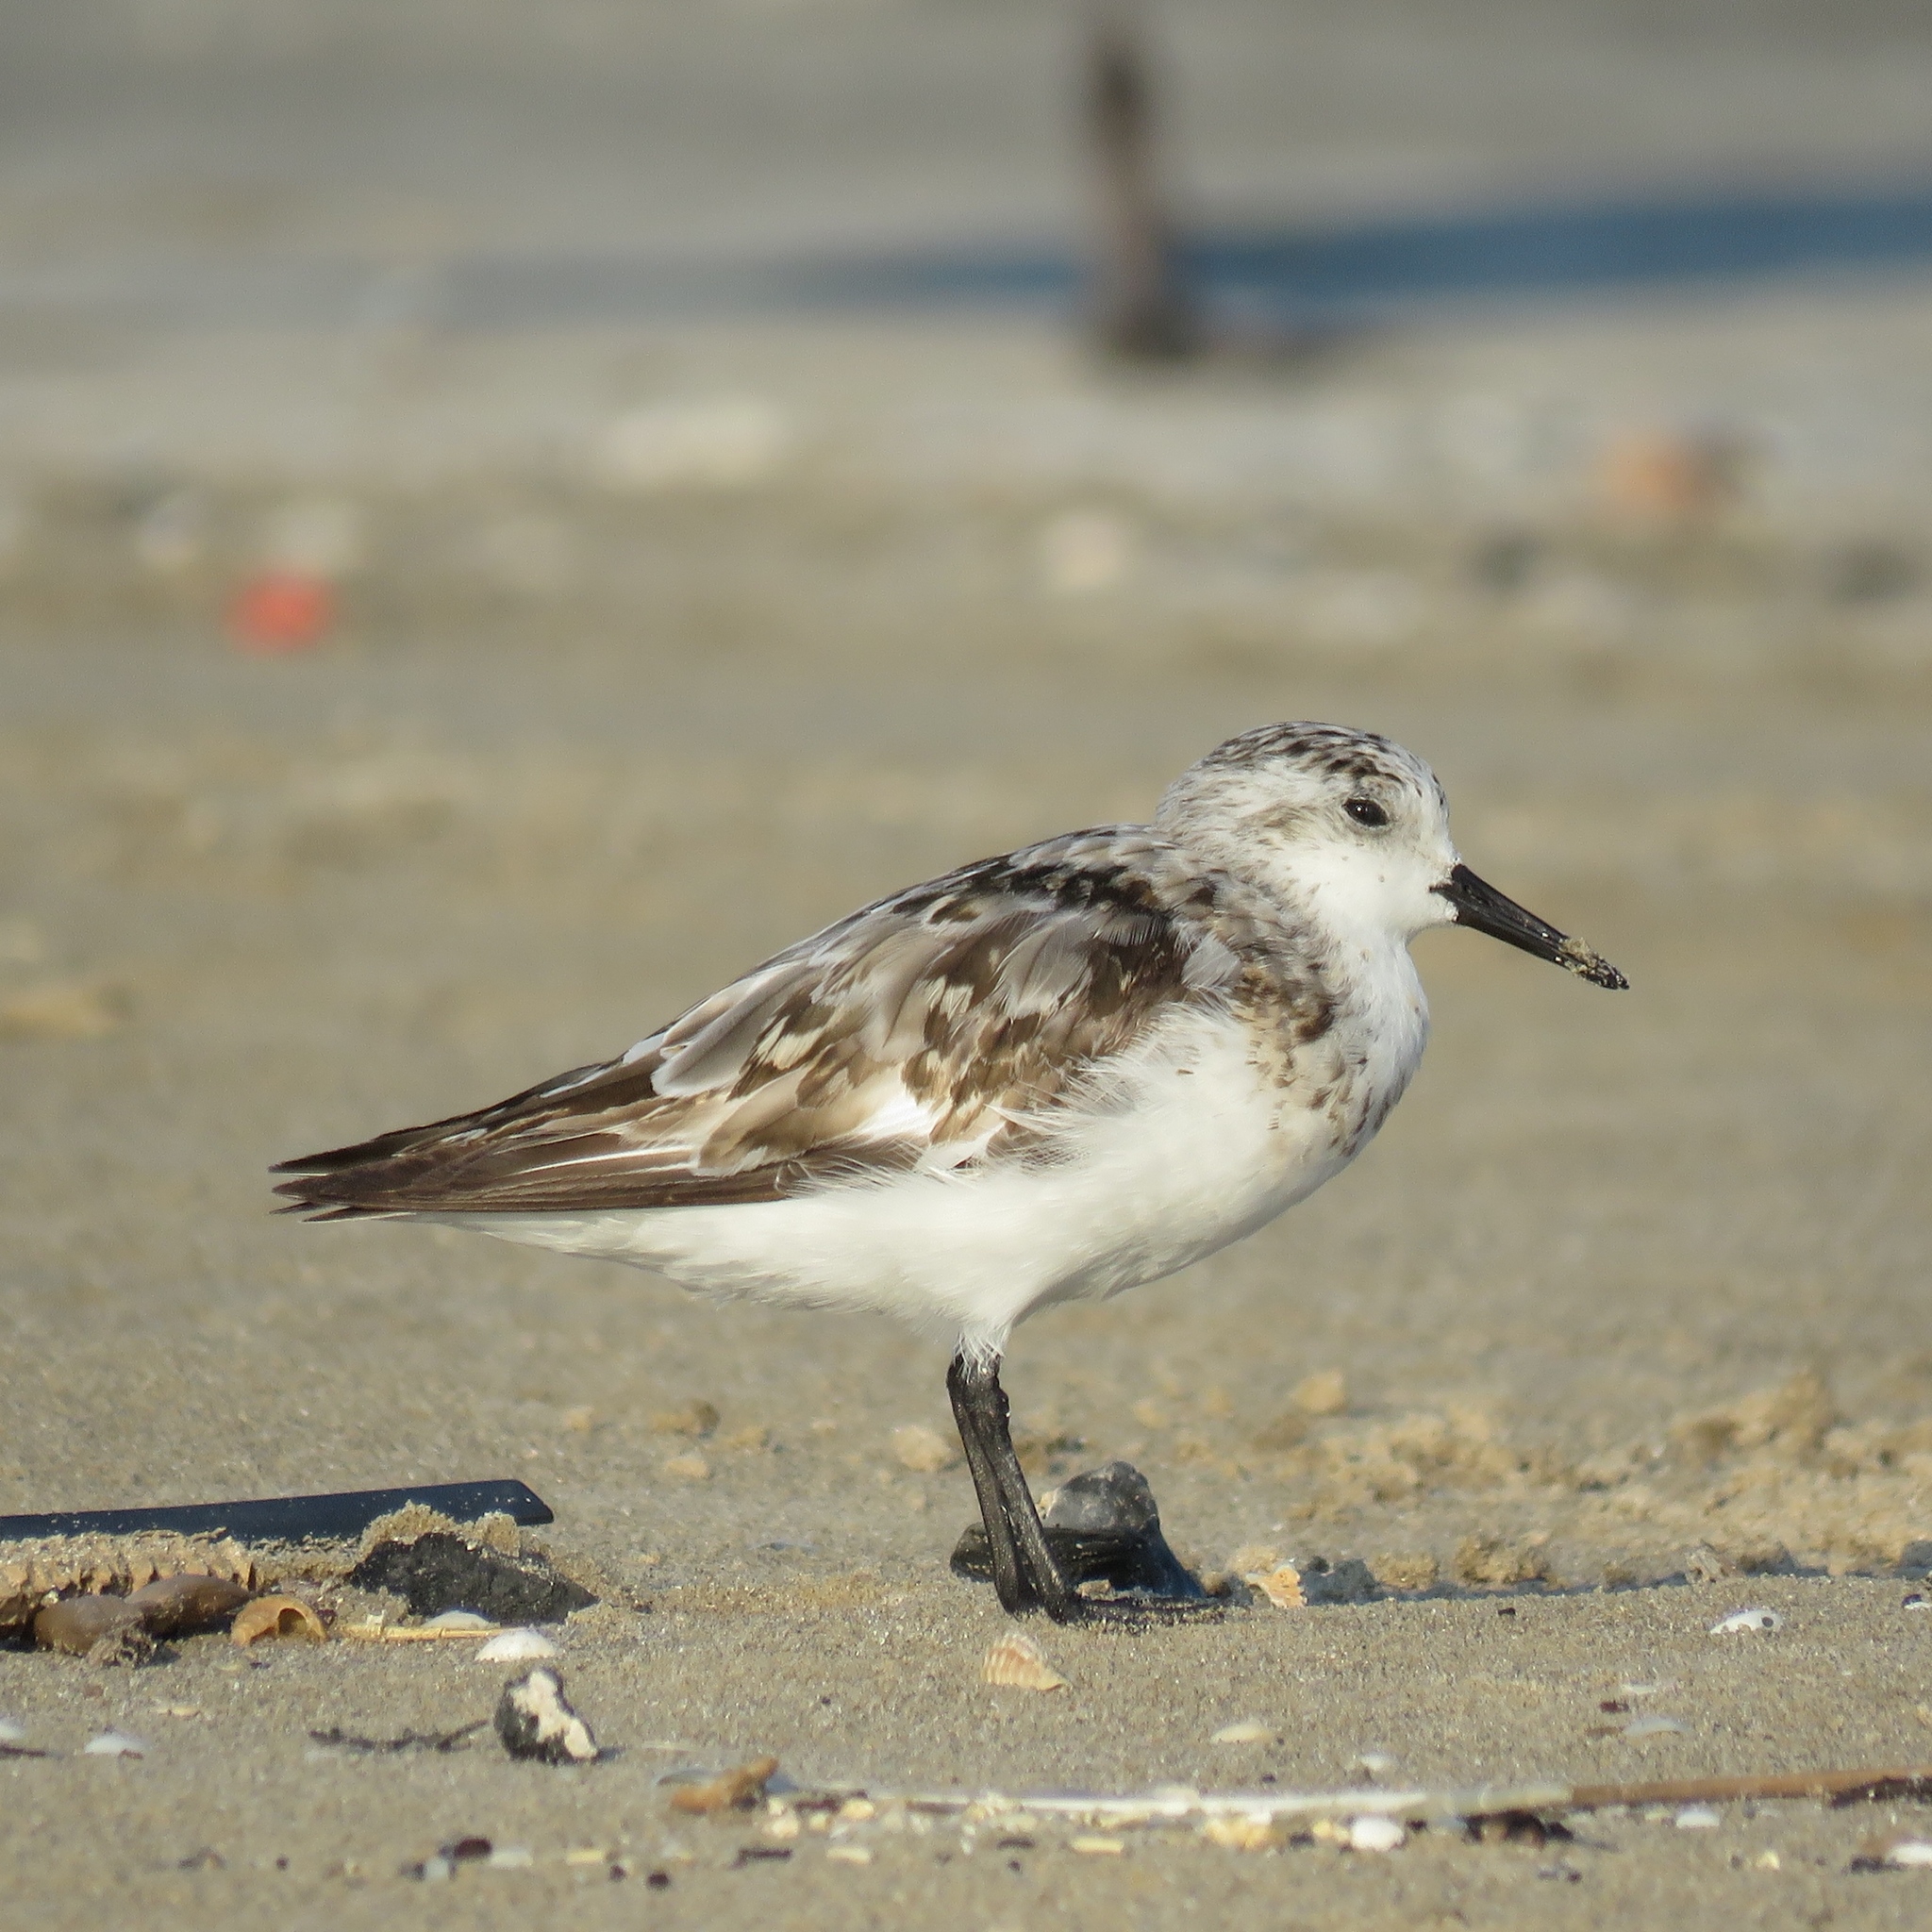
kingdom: Animalia
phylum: Chordata
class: Aves
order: Charadriiformes
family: Scolopacidae
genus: Calidris
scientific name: Calidris alba
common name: Sanderling
